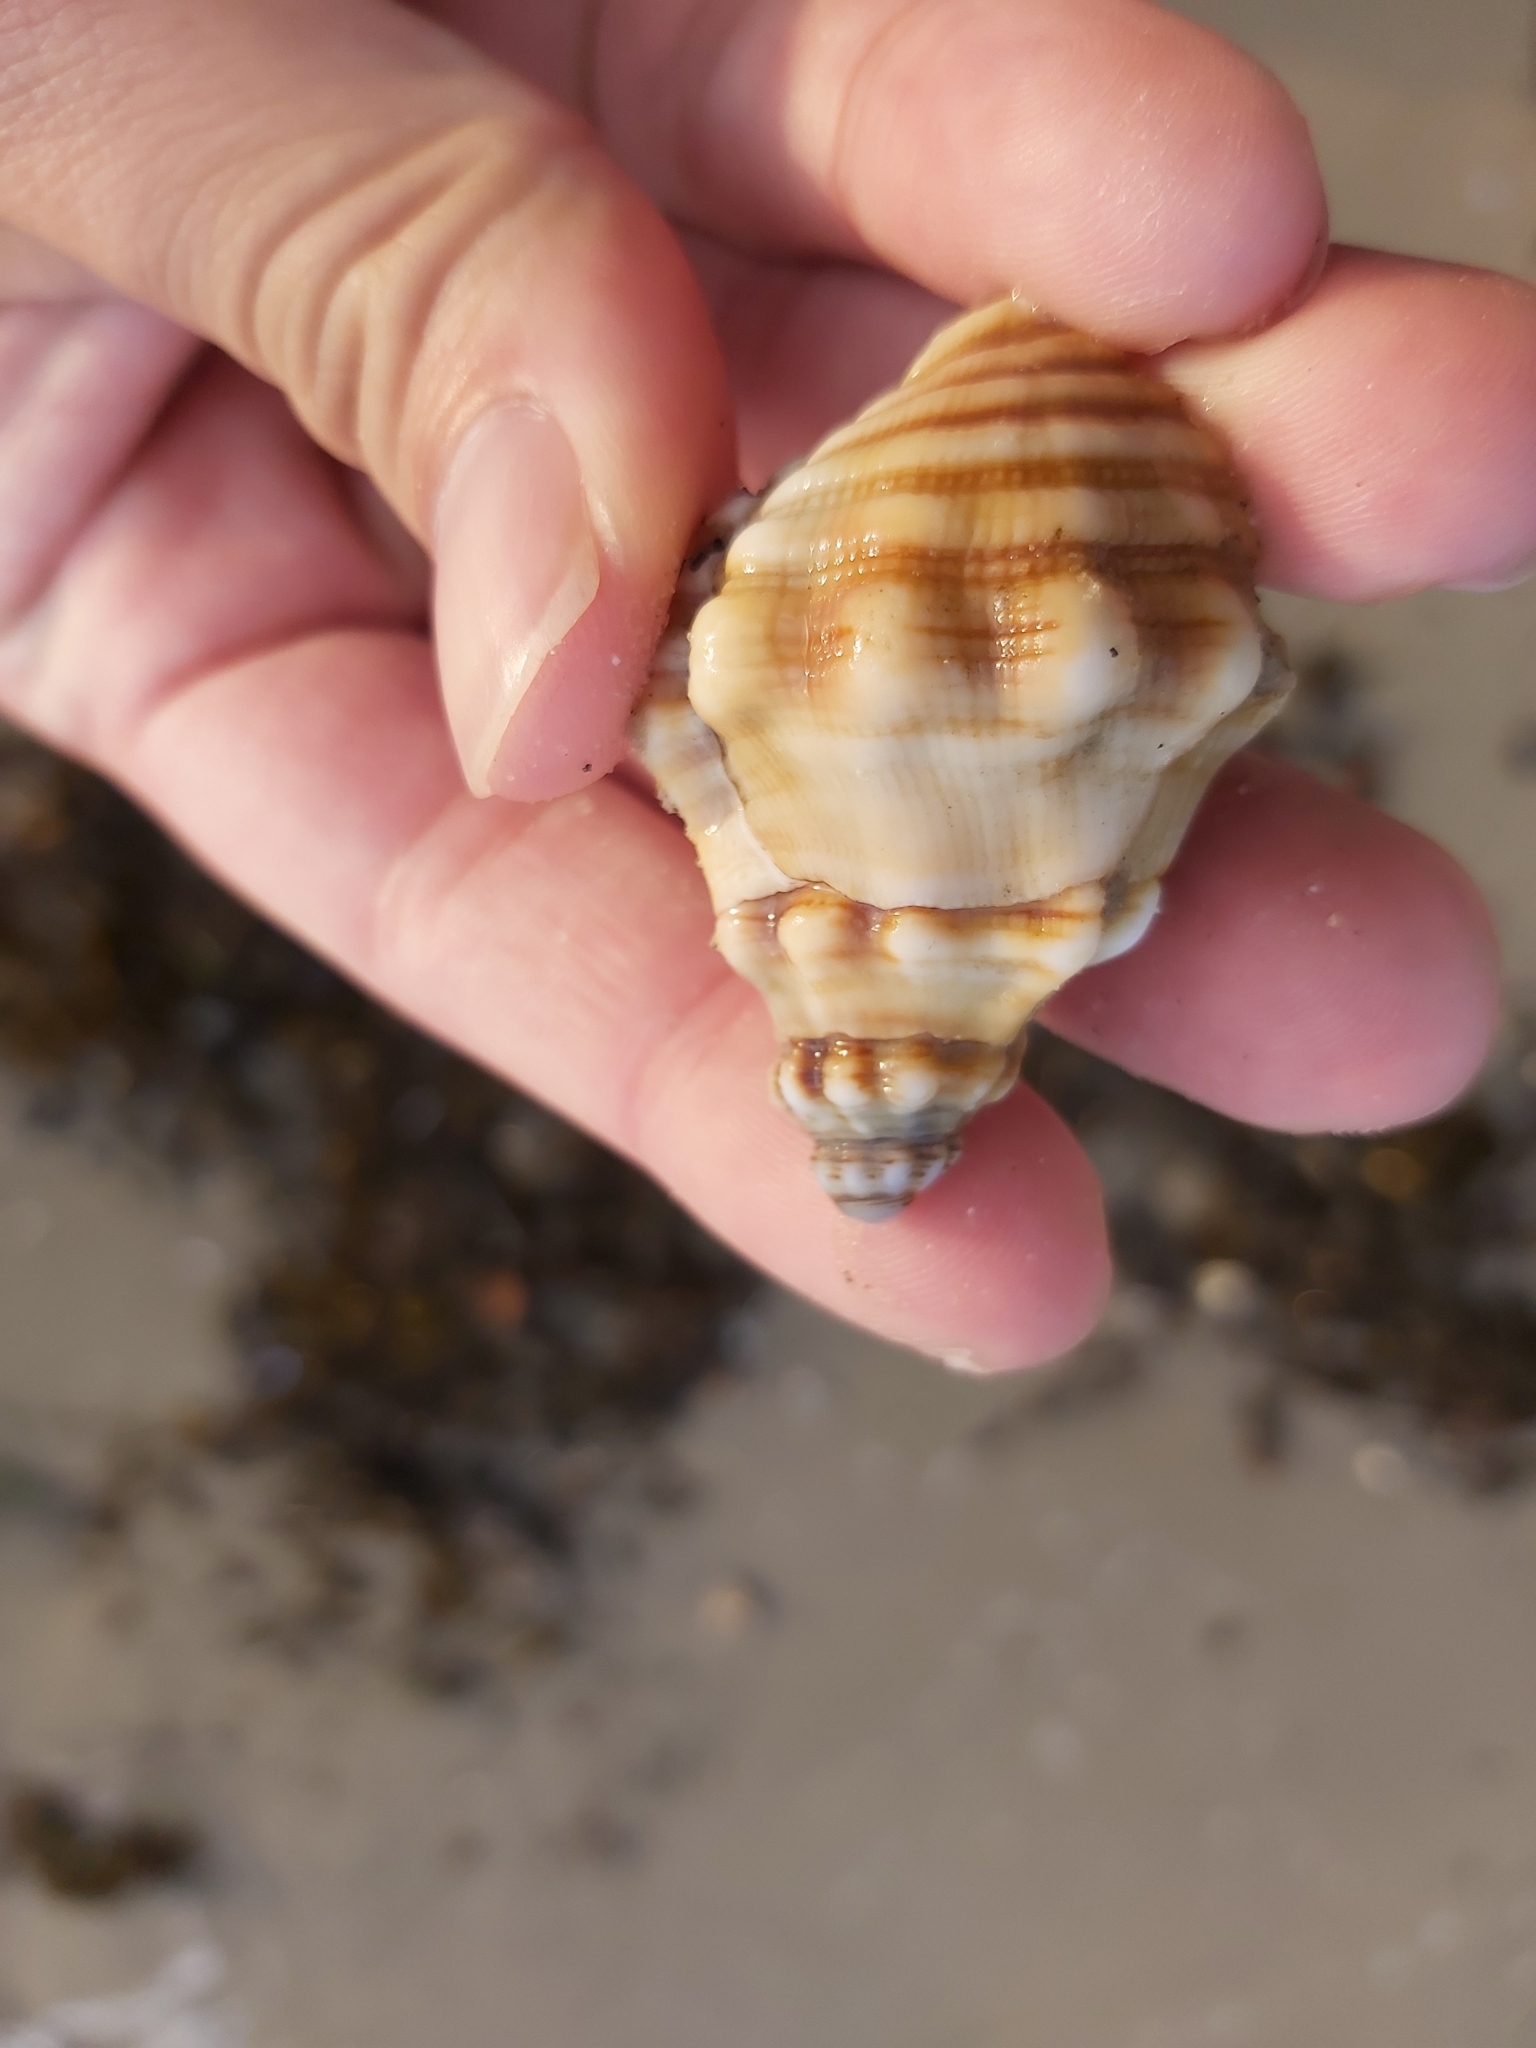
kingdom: Animalia
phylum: Mollusca
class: Gastropoda
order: Littorinimorpha
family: Cymatiidae
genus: Cabestana
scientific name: Cabestana spengleri
